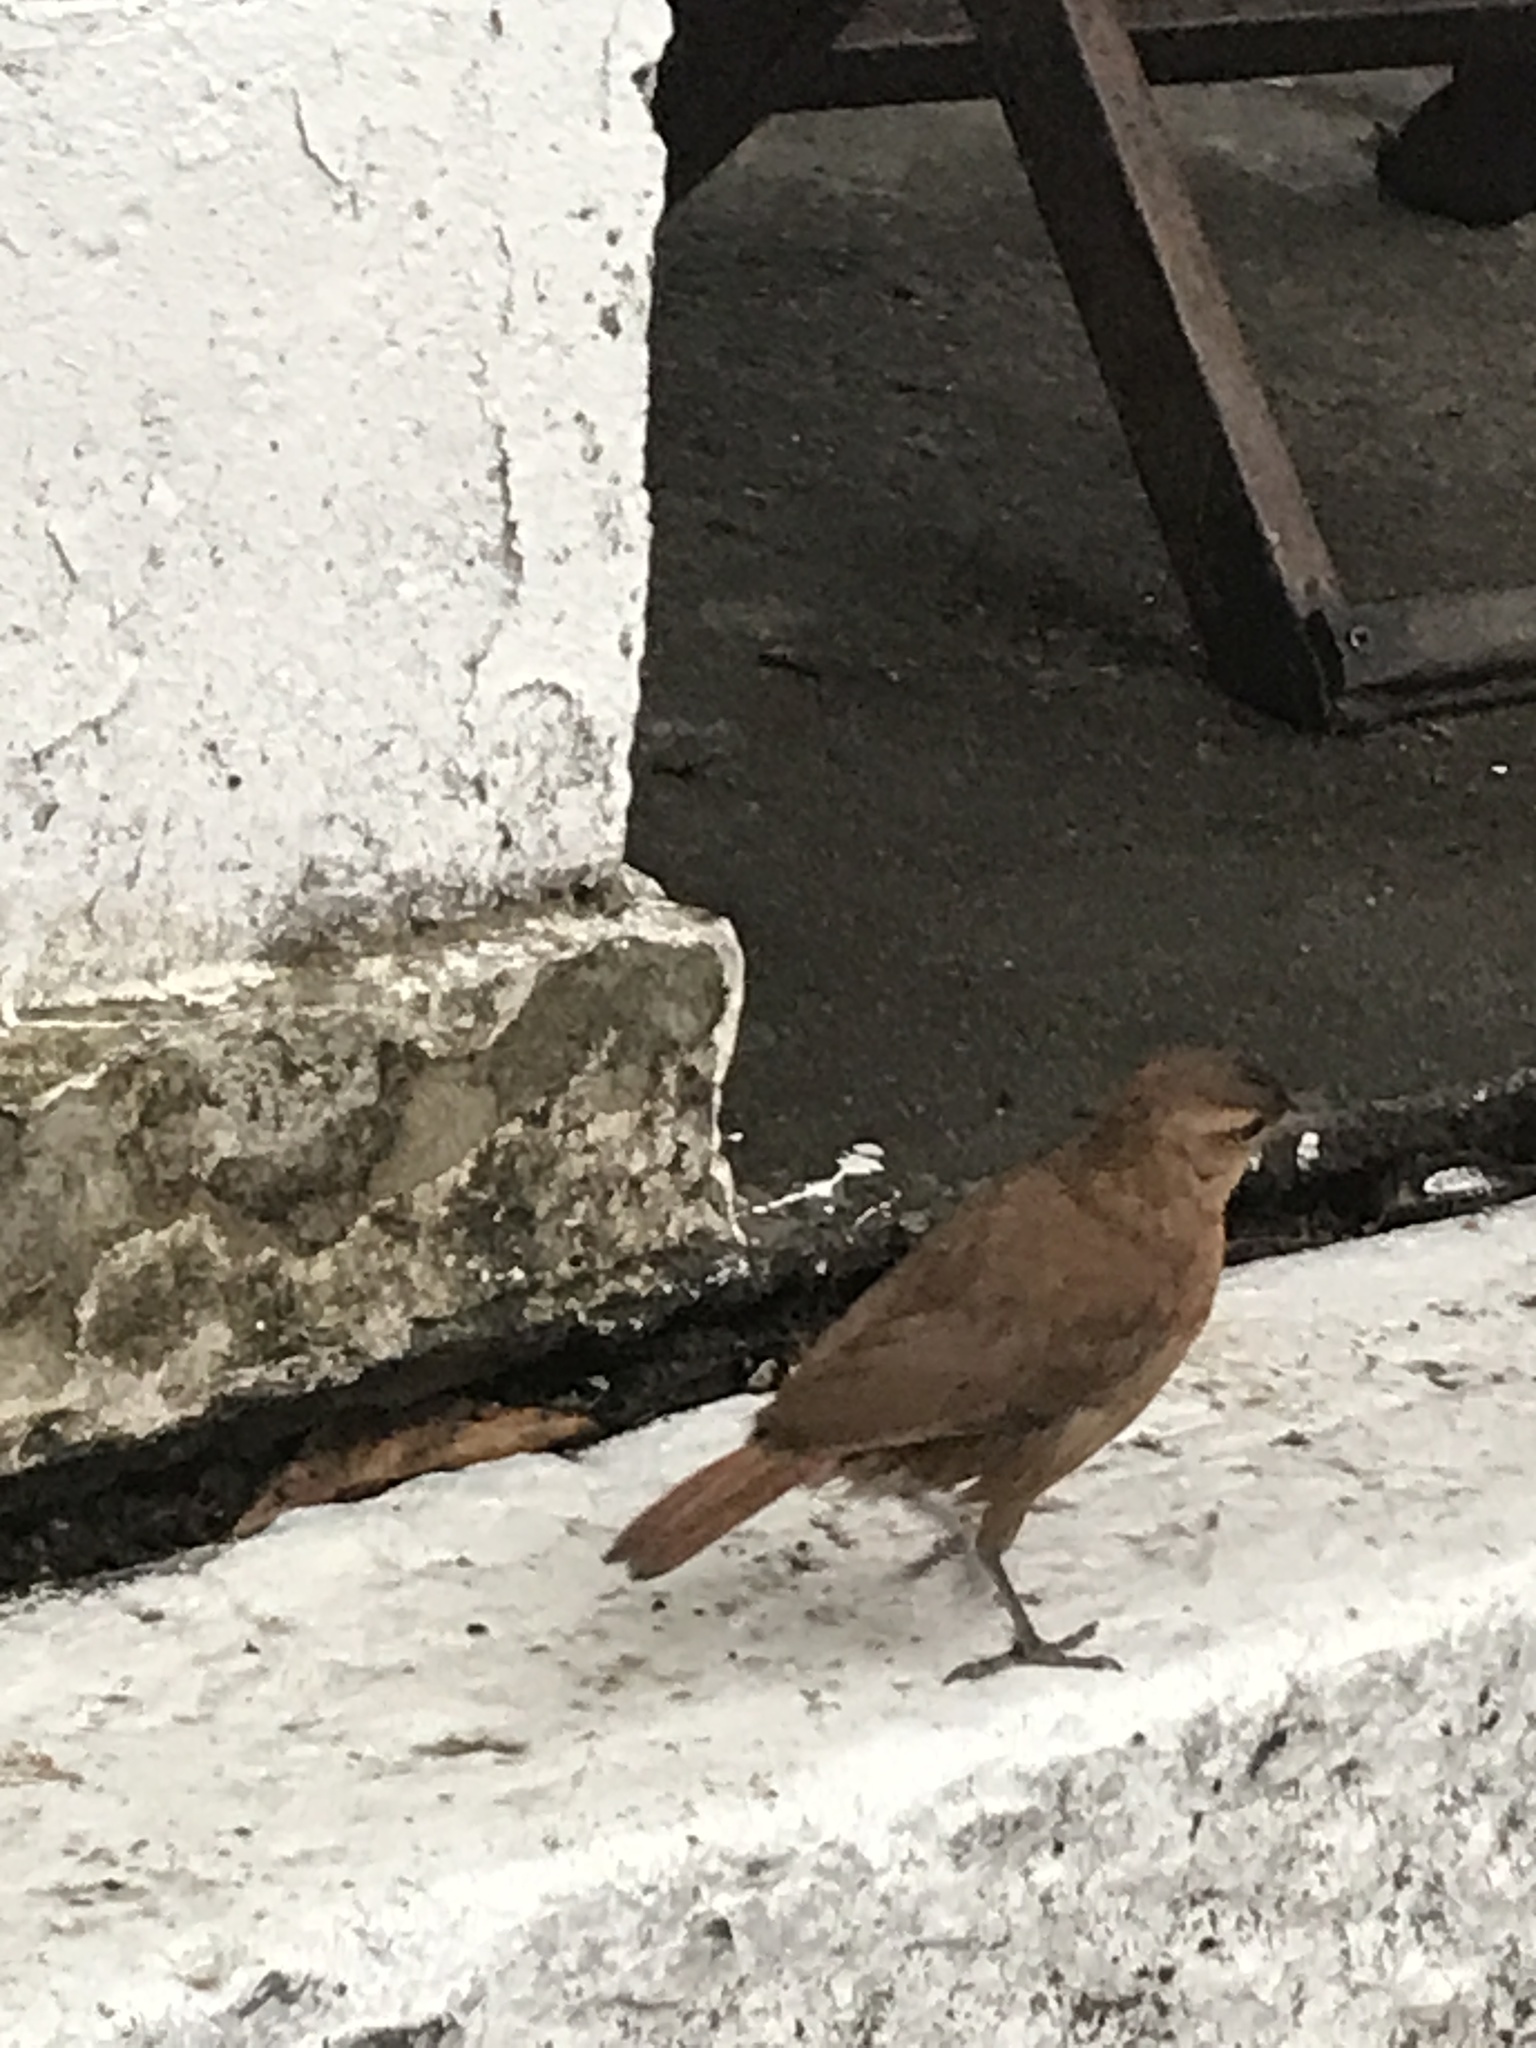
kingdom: Animalia
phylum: Chordata
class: Aves
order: Passeriformes
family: Furnariidae
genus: Furnarius
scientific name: Furnarius rufus
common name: Rufous hornero
